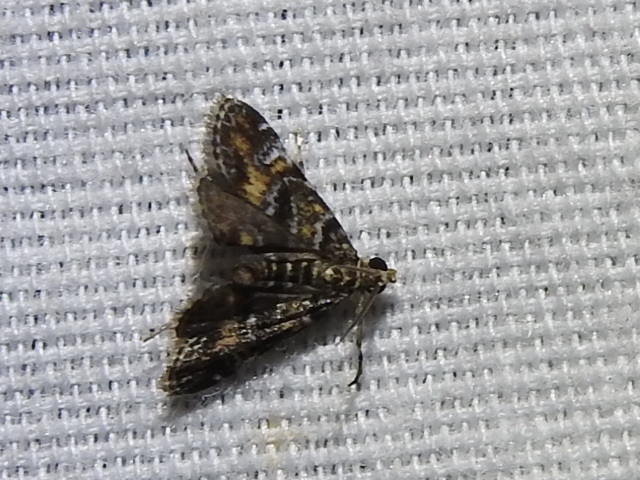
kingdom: Animalia
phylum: Arthropoda
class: Insecta
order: Lepidoptera
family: Crambidae
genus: Elophila
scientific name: Elophila obliteralis
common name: Waterlily leafcutter moth
